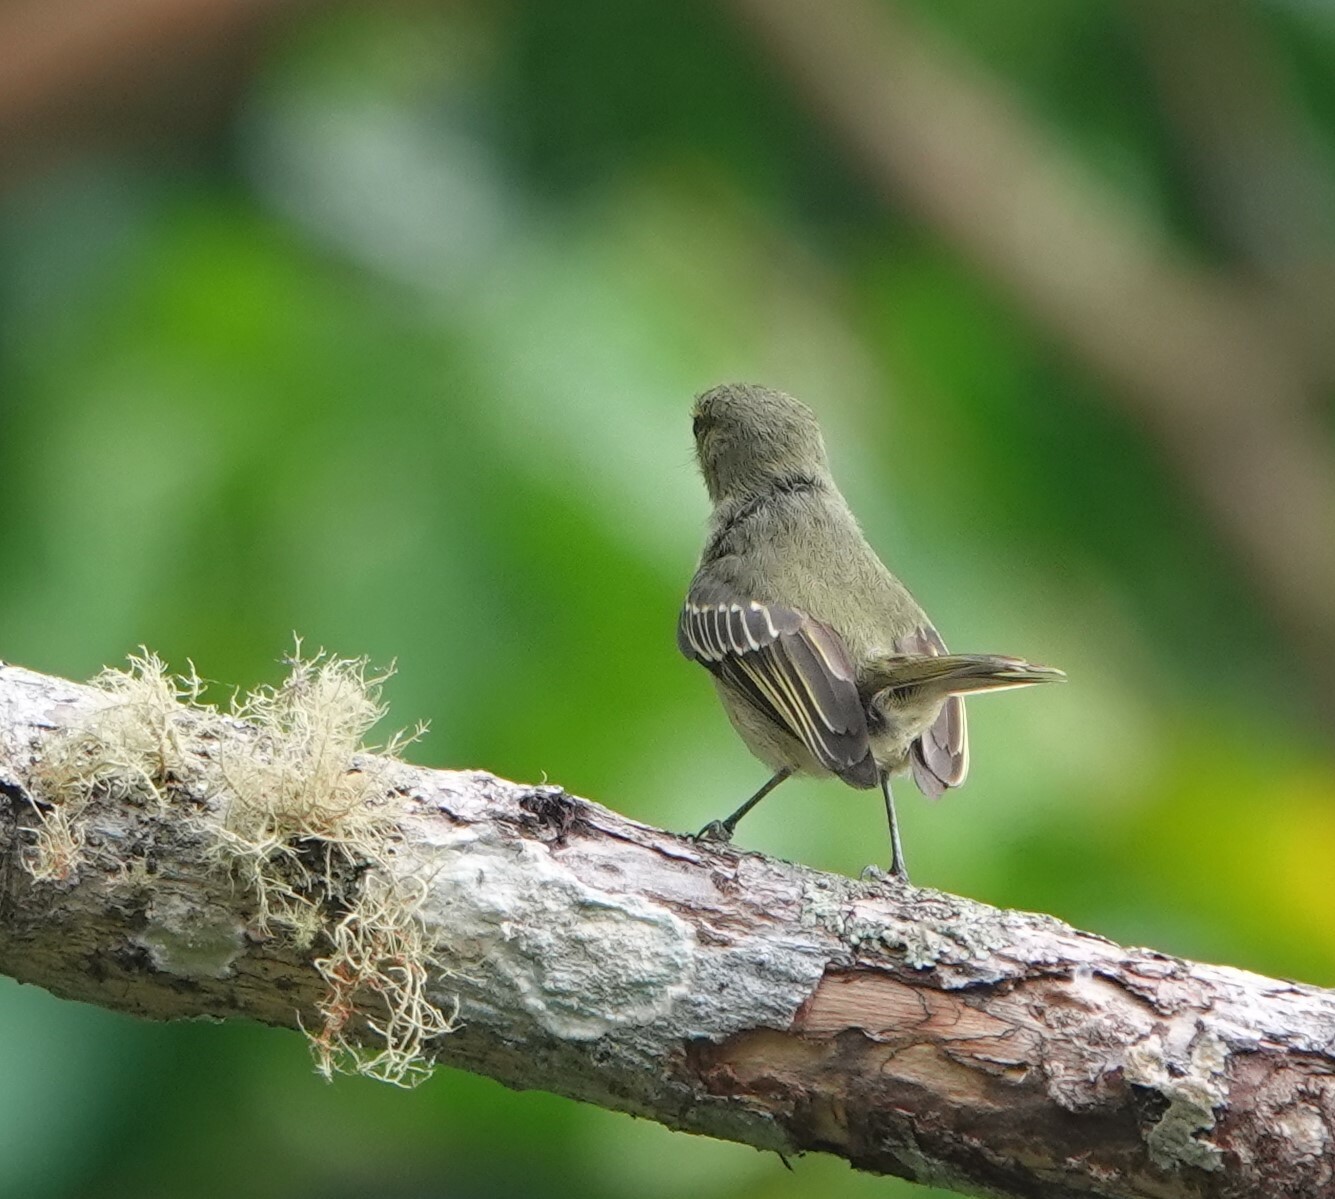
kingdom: Animalia
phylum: Chordata
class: Aves
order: Passeriformes
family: Tyrannidae
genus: Zimmerius
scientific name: Zimmerius chrysops
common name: Golden-faced tyrannulet
